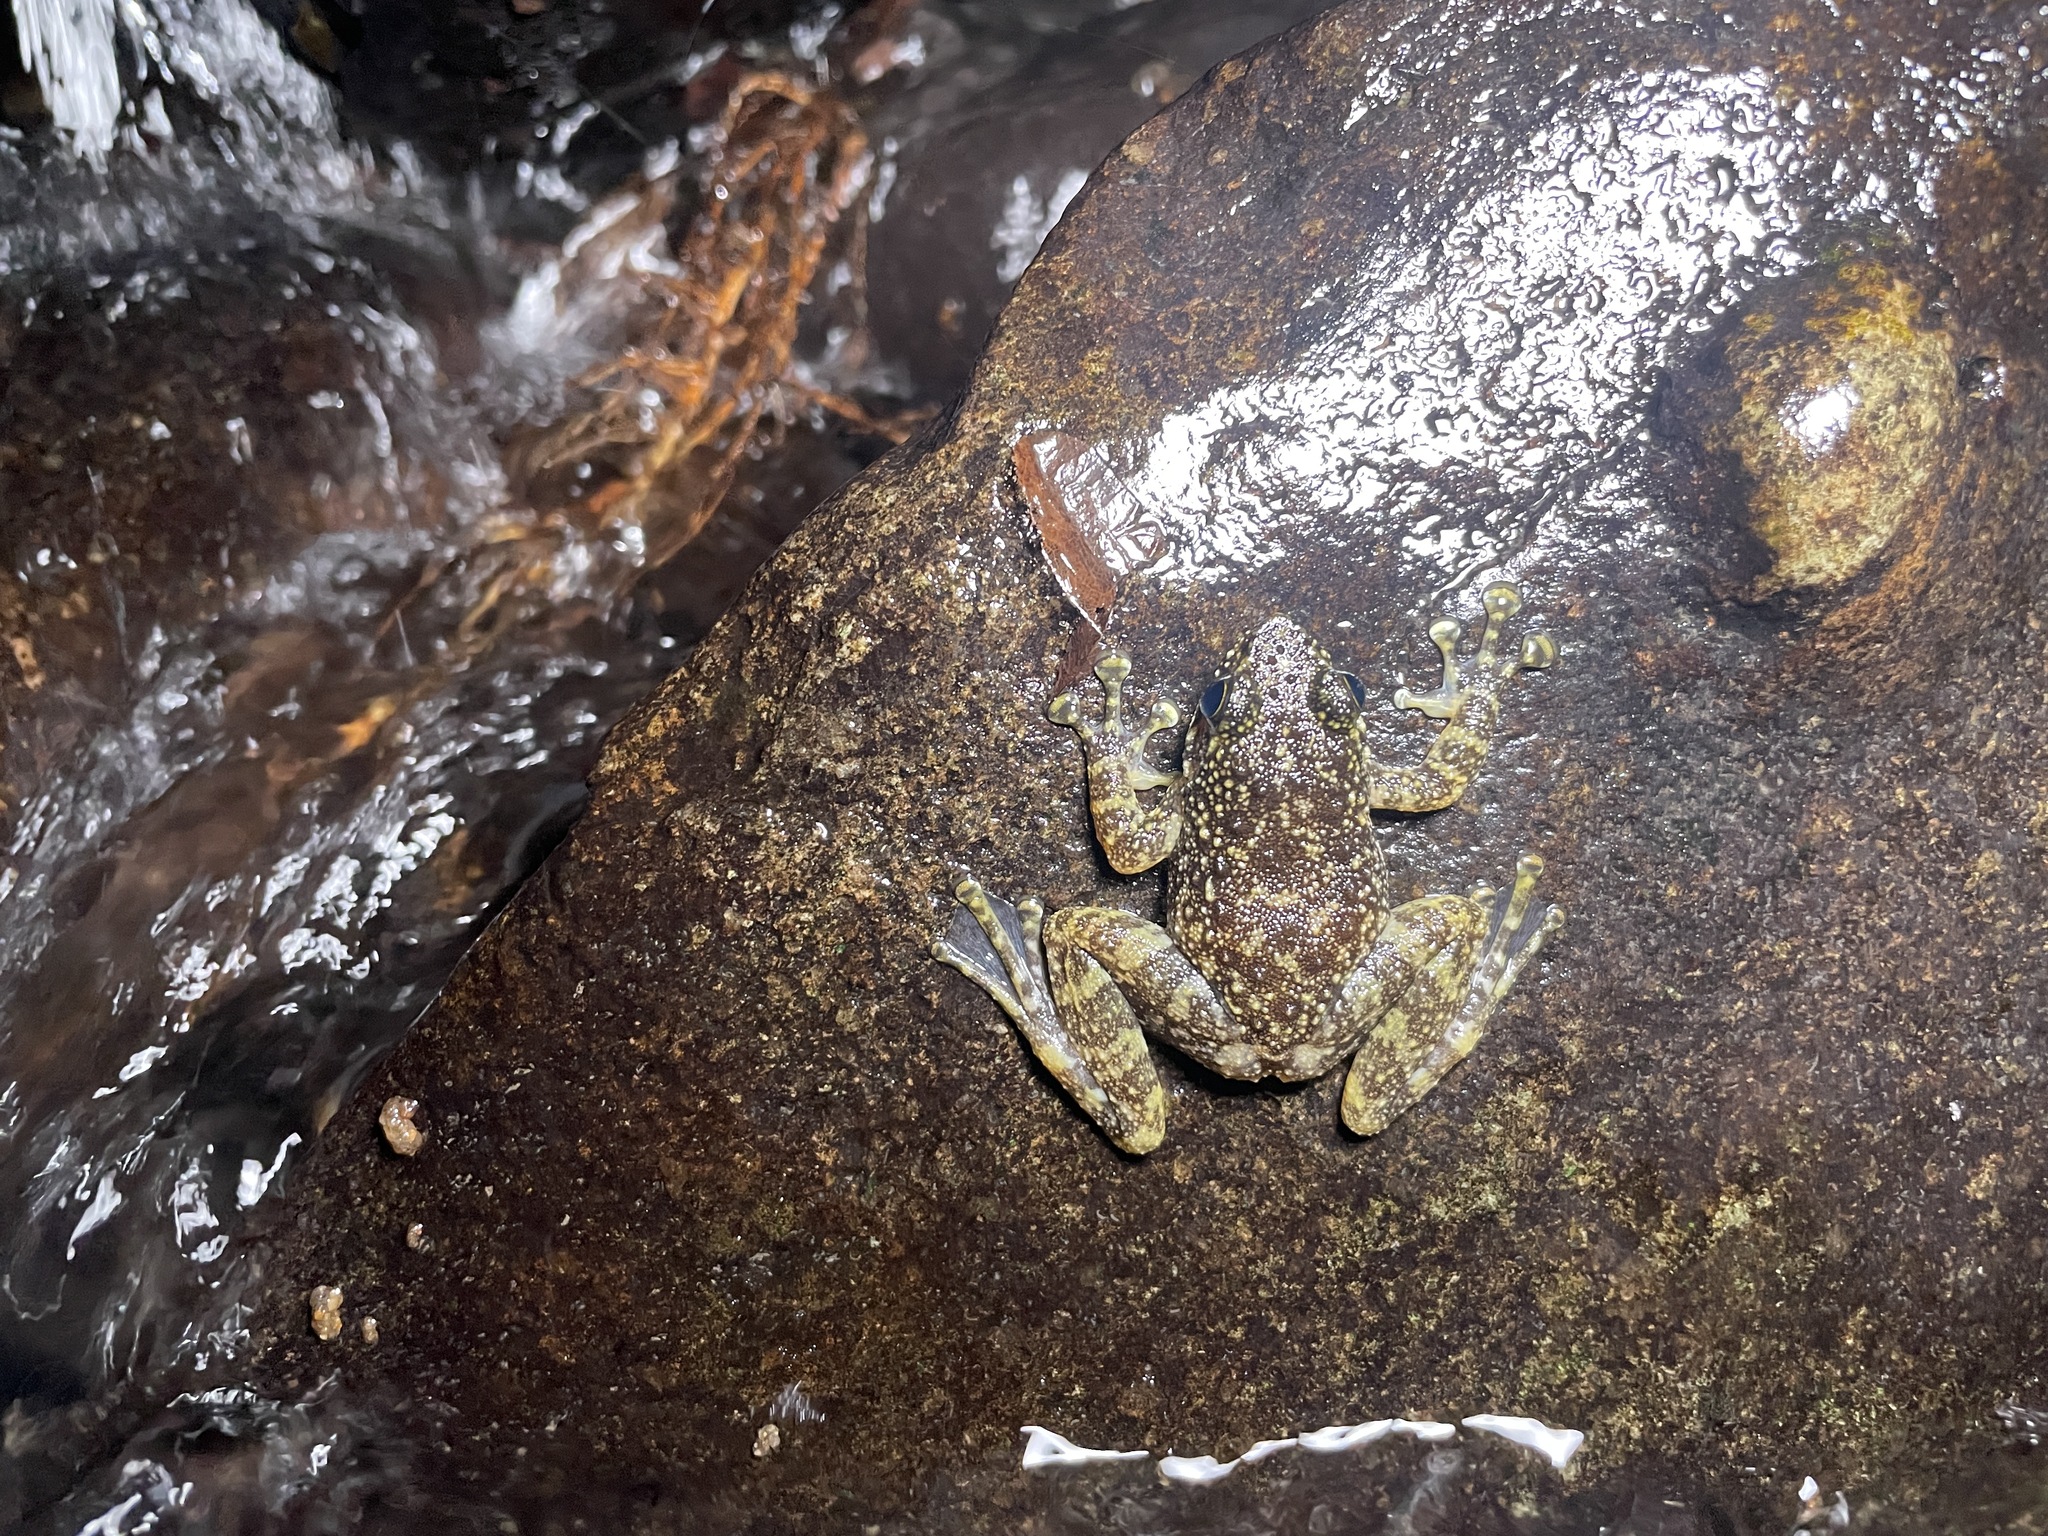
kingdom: Animalia
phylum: Chordata
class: Amphibia
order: Anura
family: Ranidae
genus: Amolops
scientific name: Amolops hongkongensis
